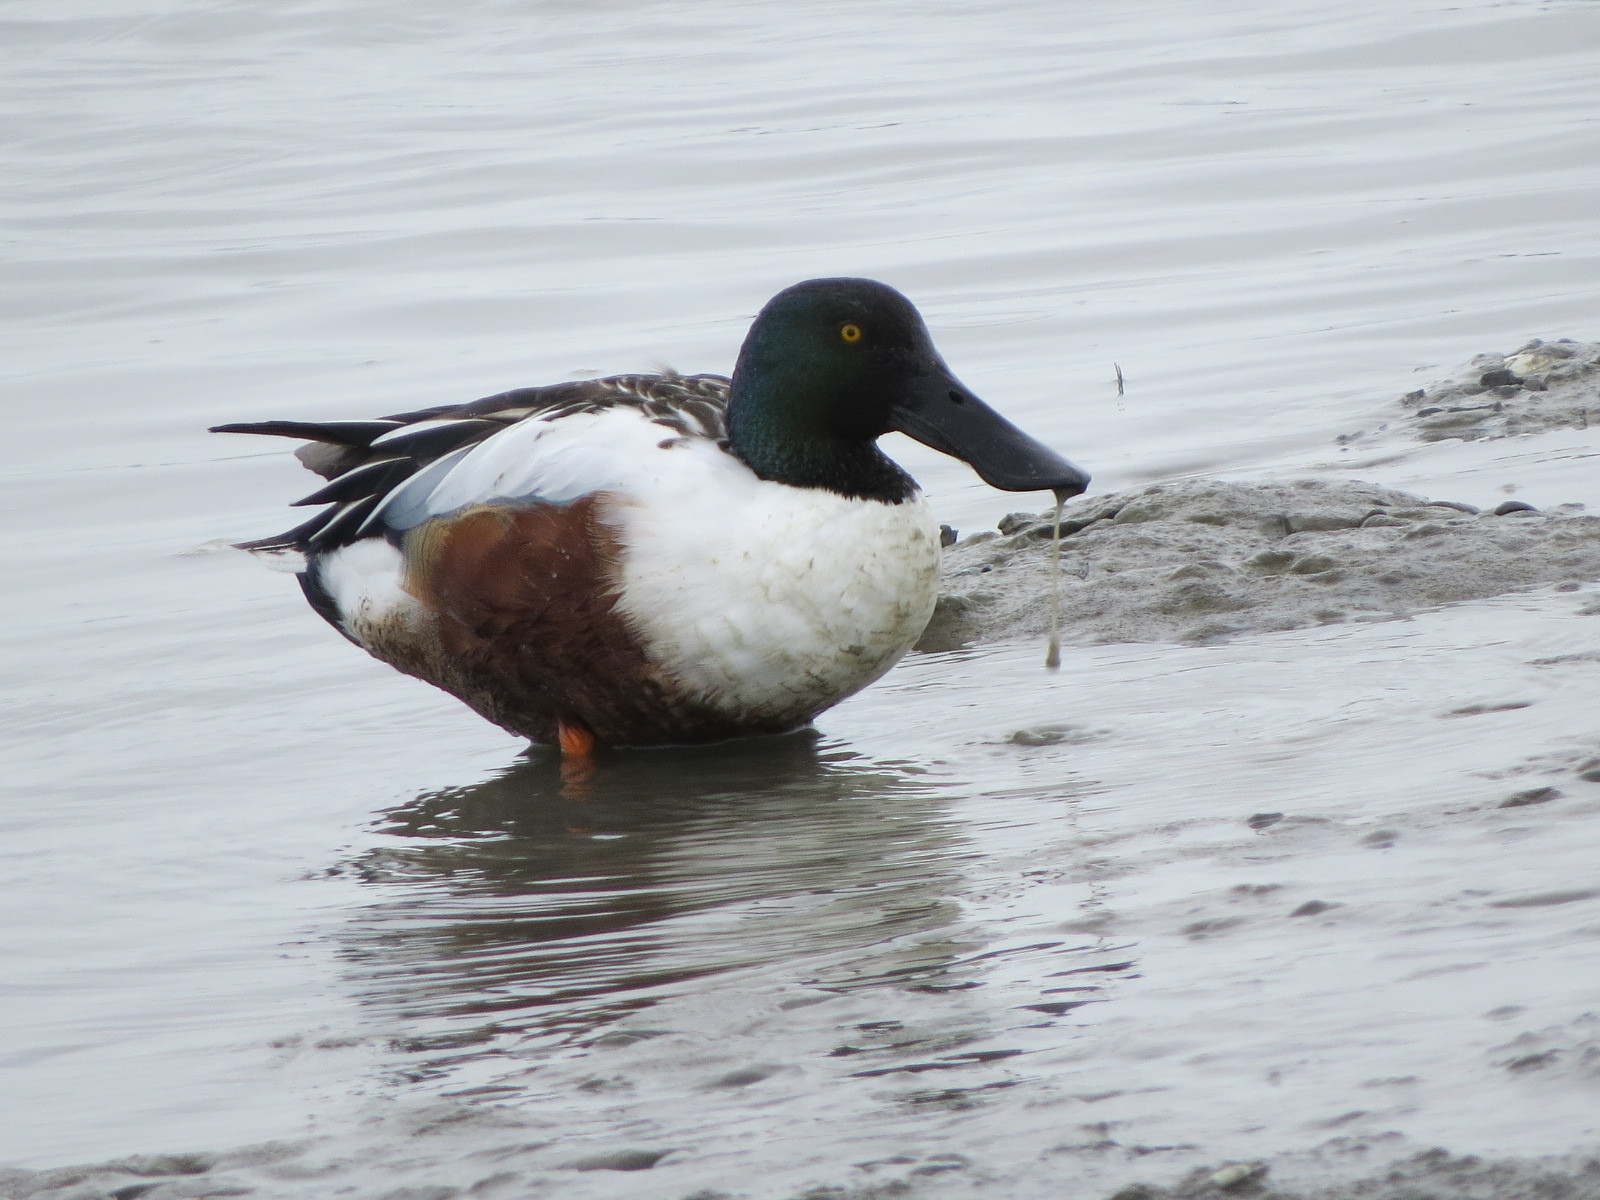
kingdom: Animalia
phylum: Chordata
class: Aves
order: Anseriformes
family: Anatidae
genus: Spatula
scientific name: Spatula clypeata
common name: Northern shoveler
